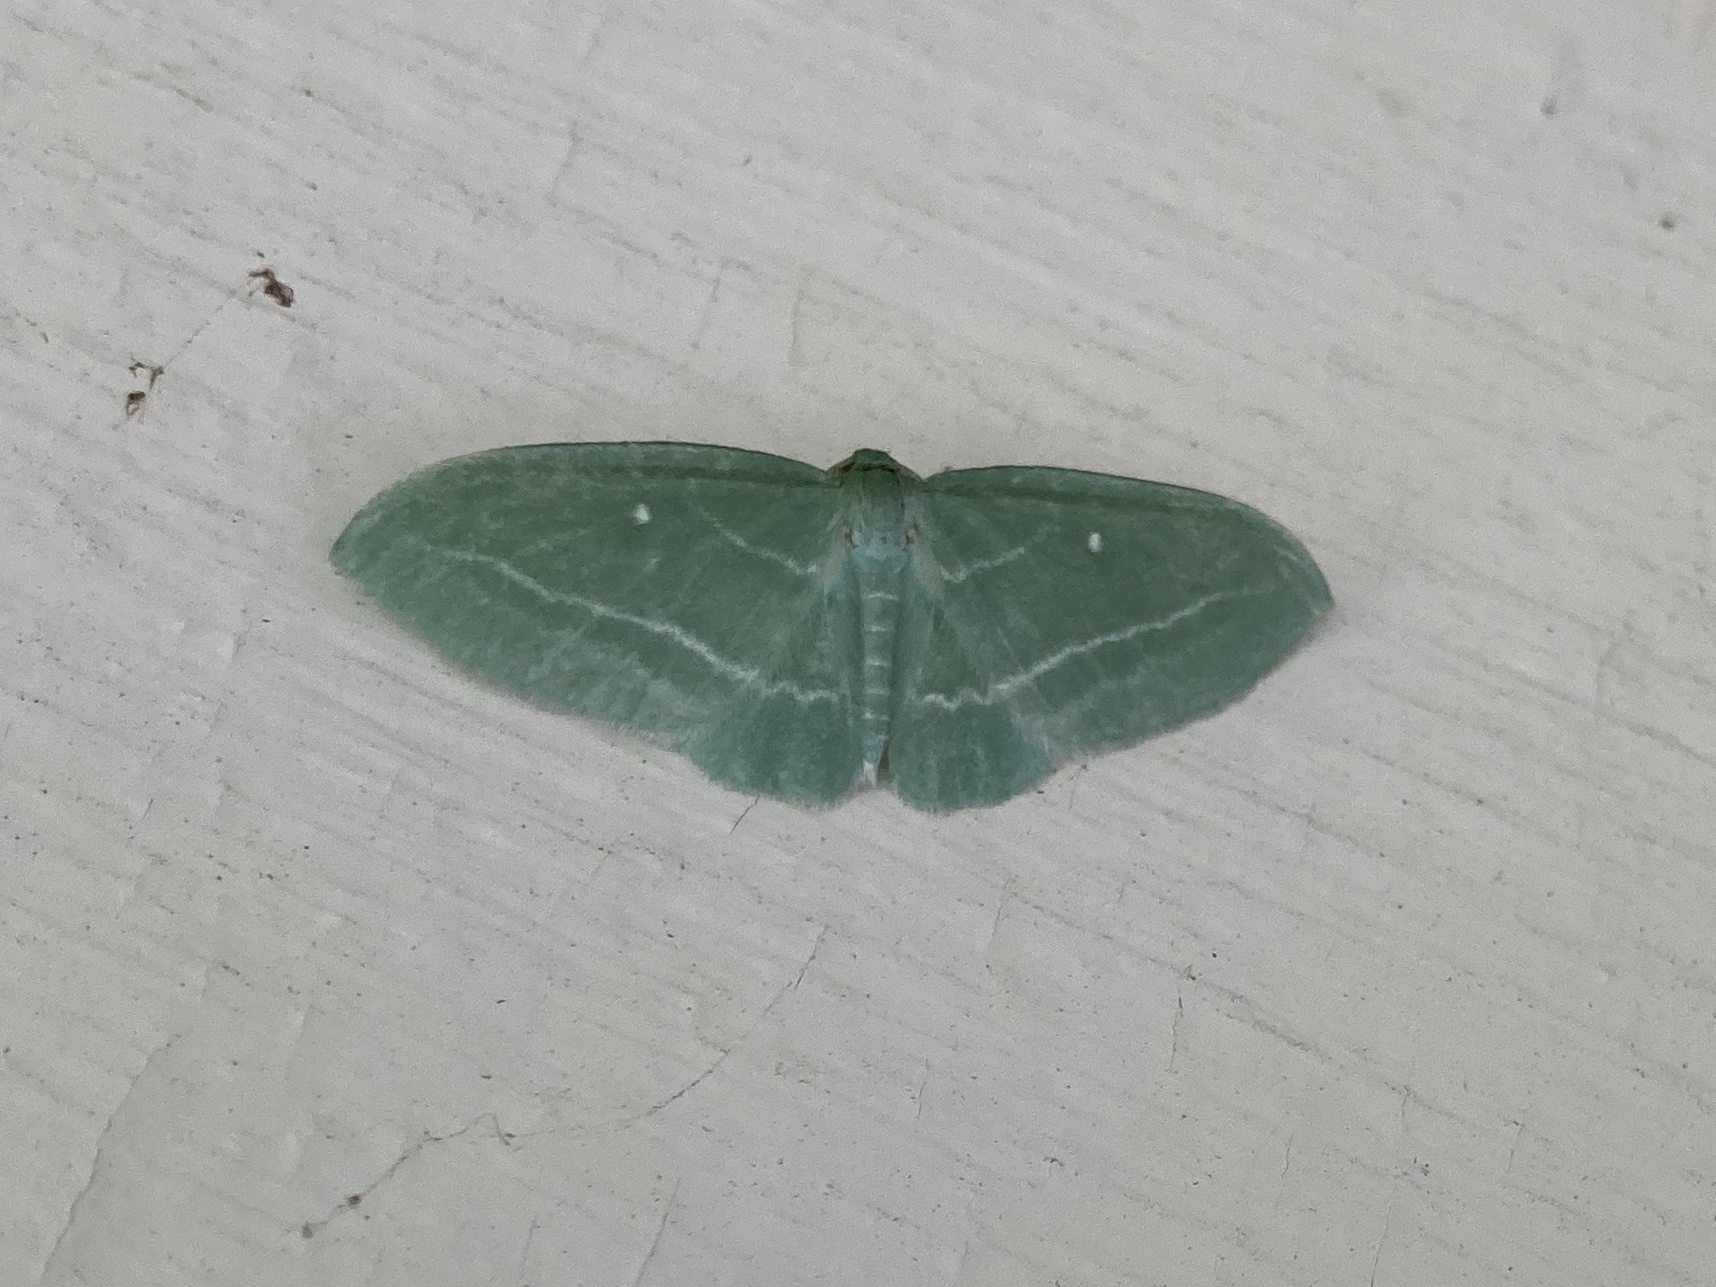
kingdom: Animalia
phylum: Arthropoda
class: Insecta
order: Lepidoptera
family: Geometridae
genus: Dyspteris
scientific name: Dyspteris abortivaria
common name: Bad-wing
